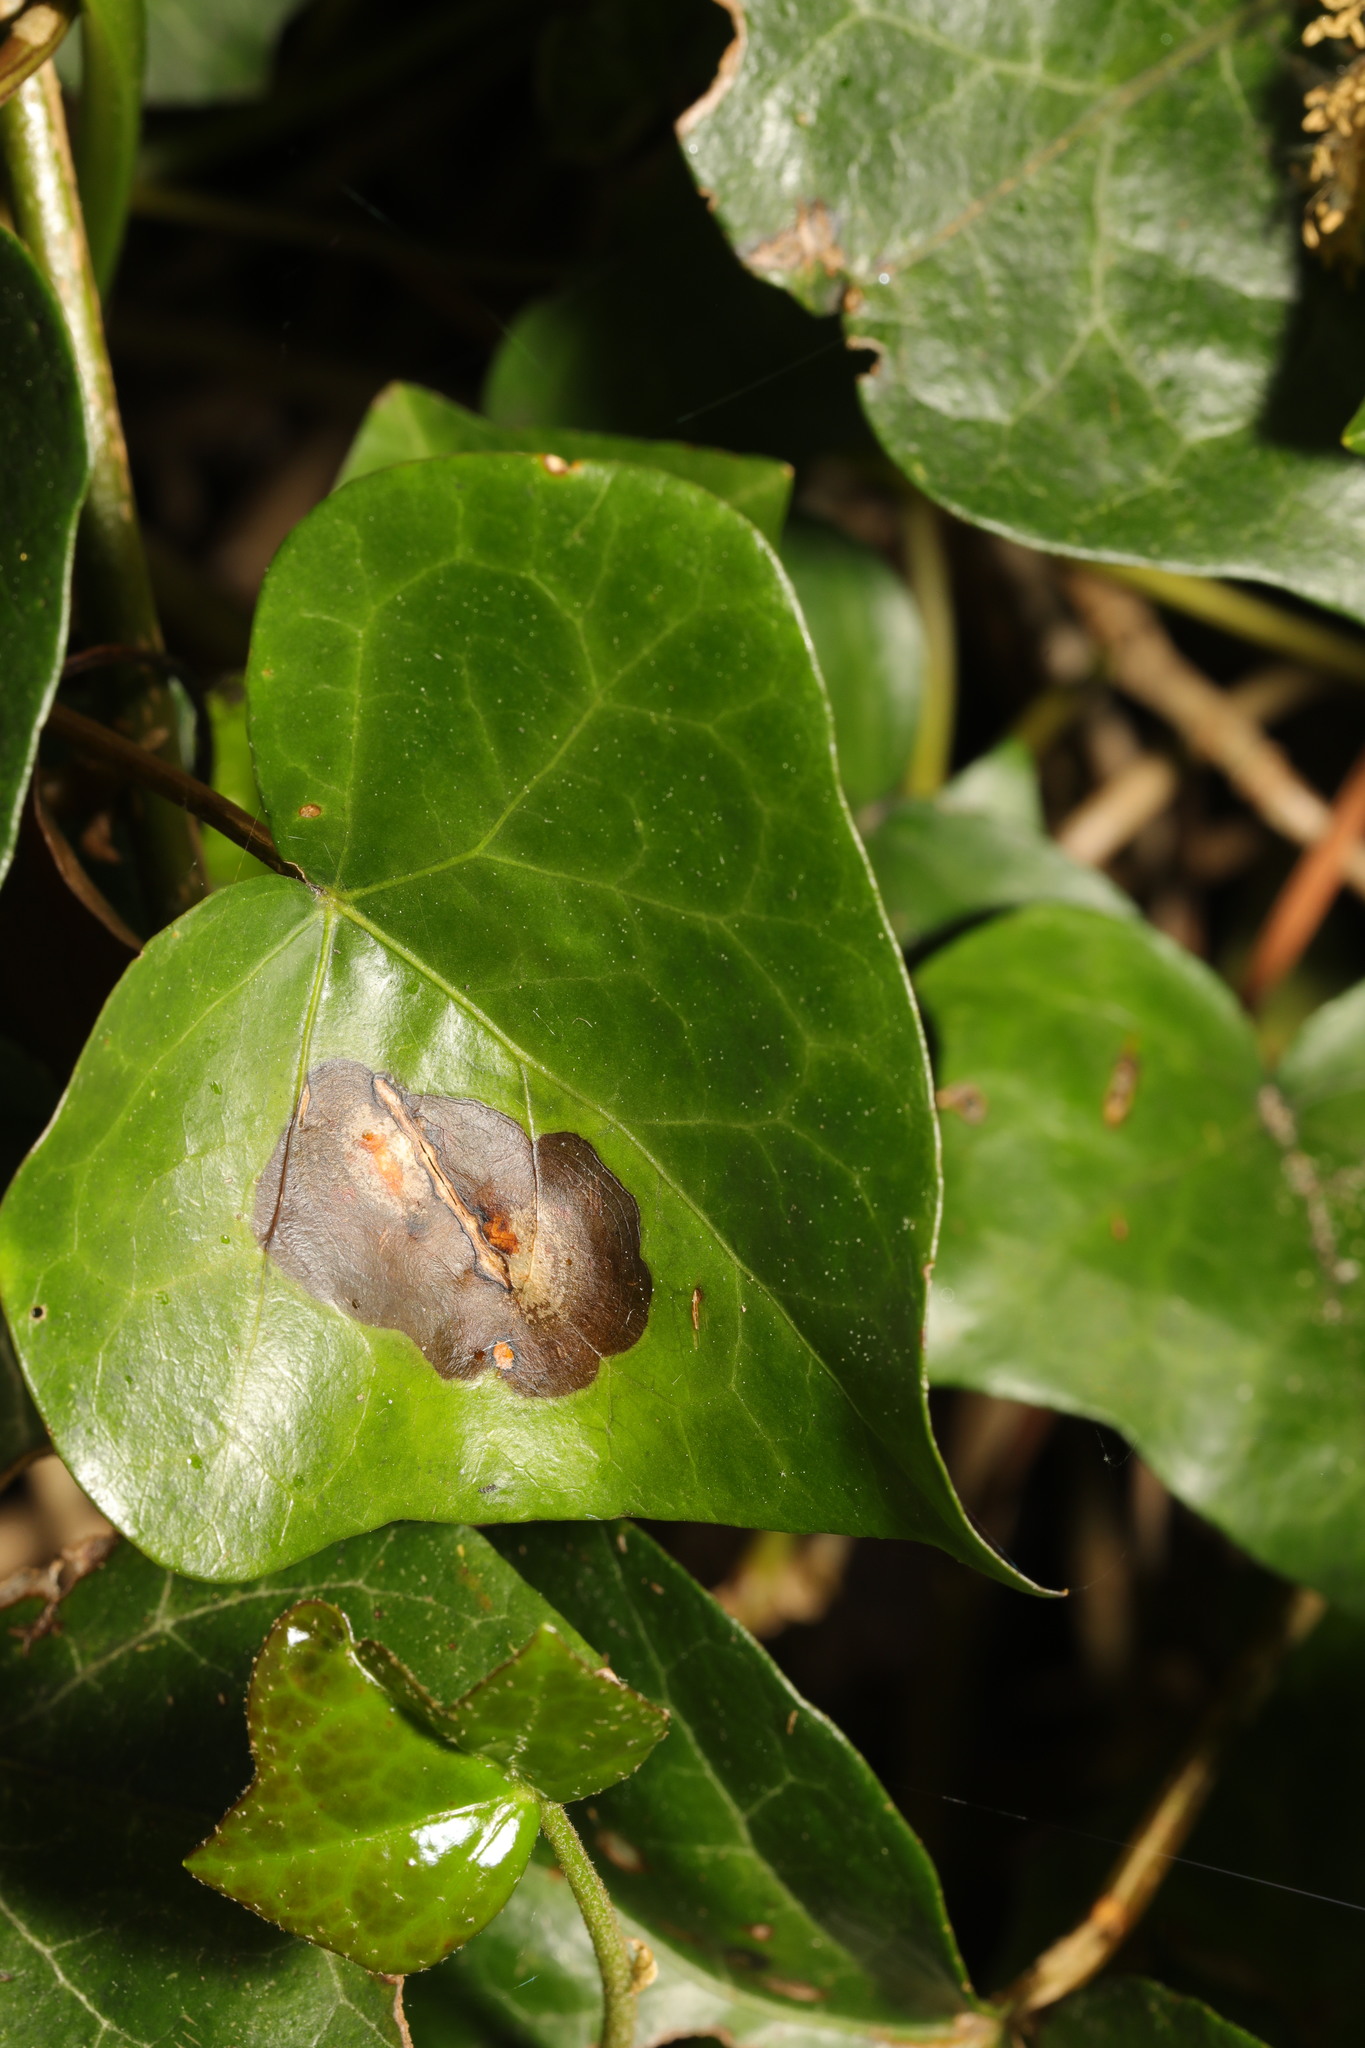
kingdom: Fungi
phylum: Ascomycota
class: Dothideomycetes
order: Pleosporales
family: Didymellaceae
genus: Boeremia
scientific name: Boeremia hedericola
